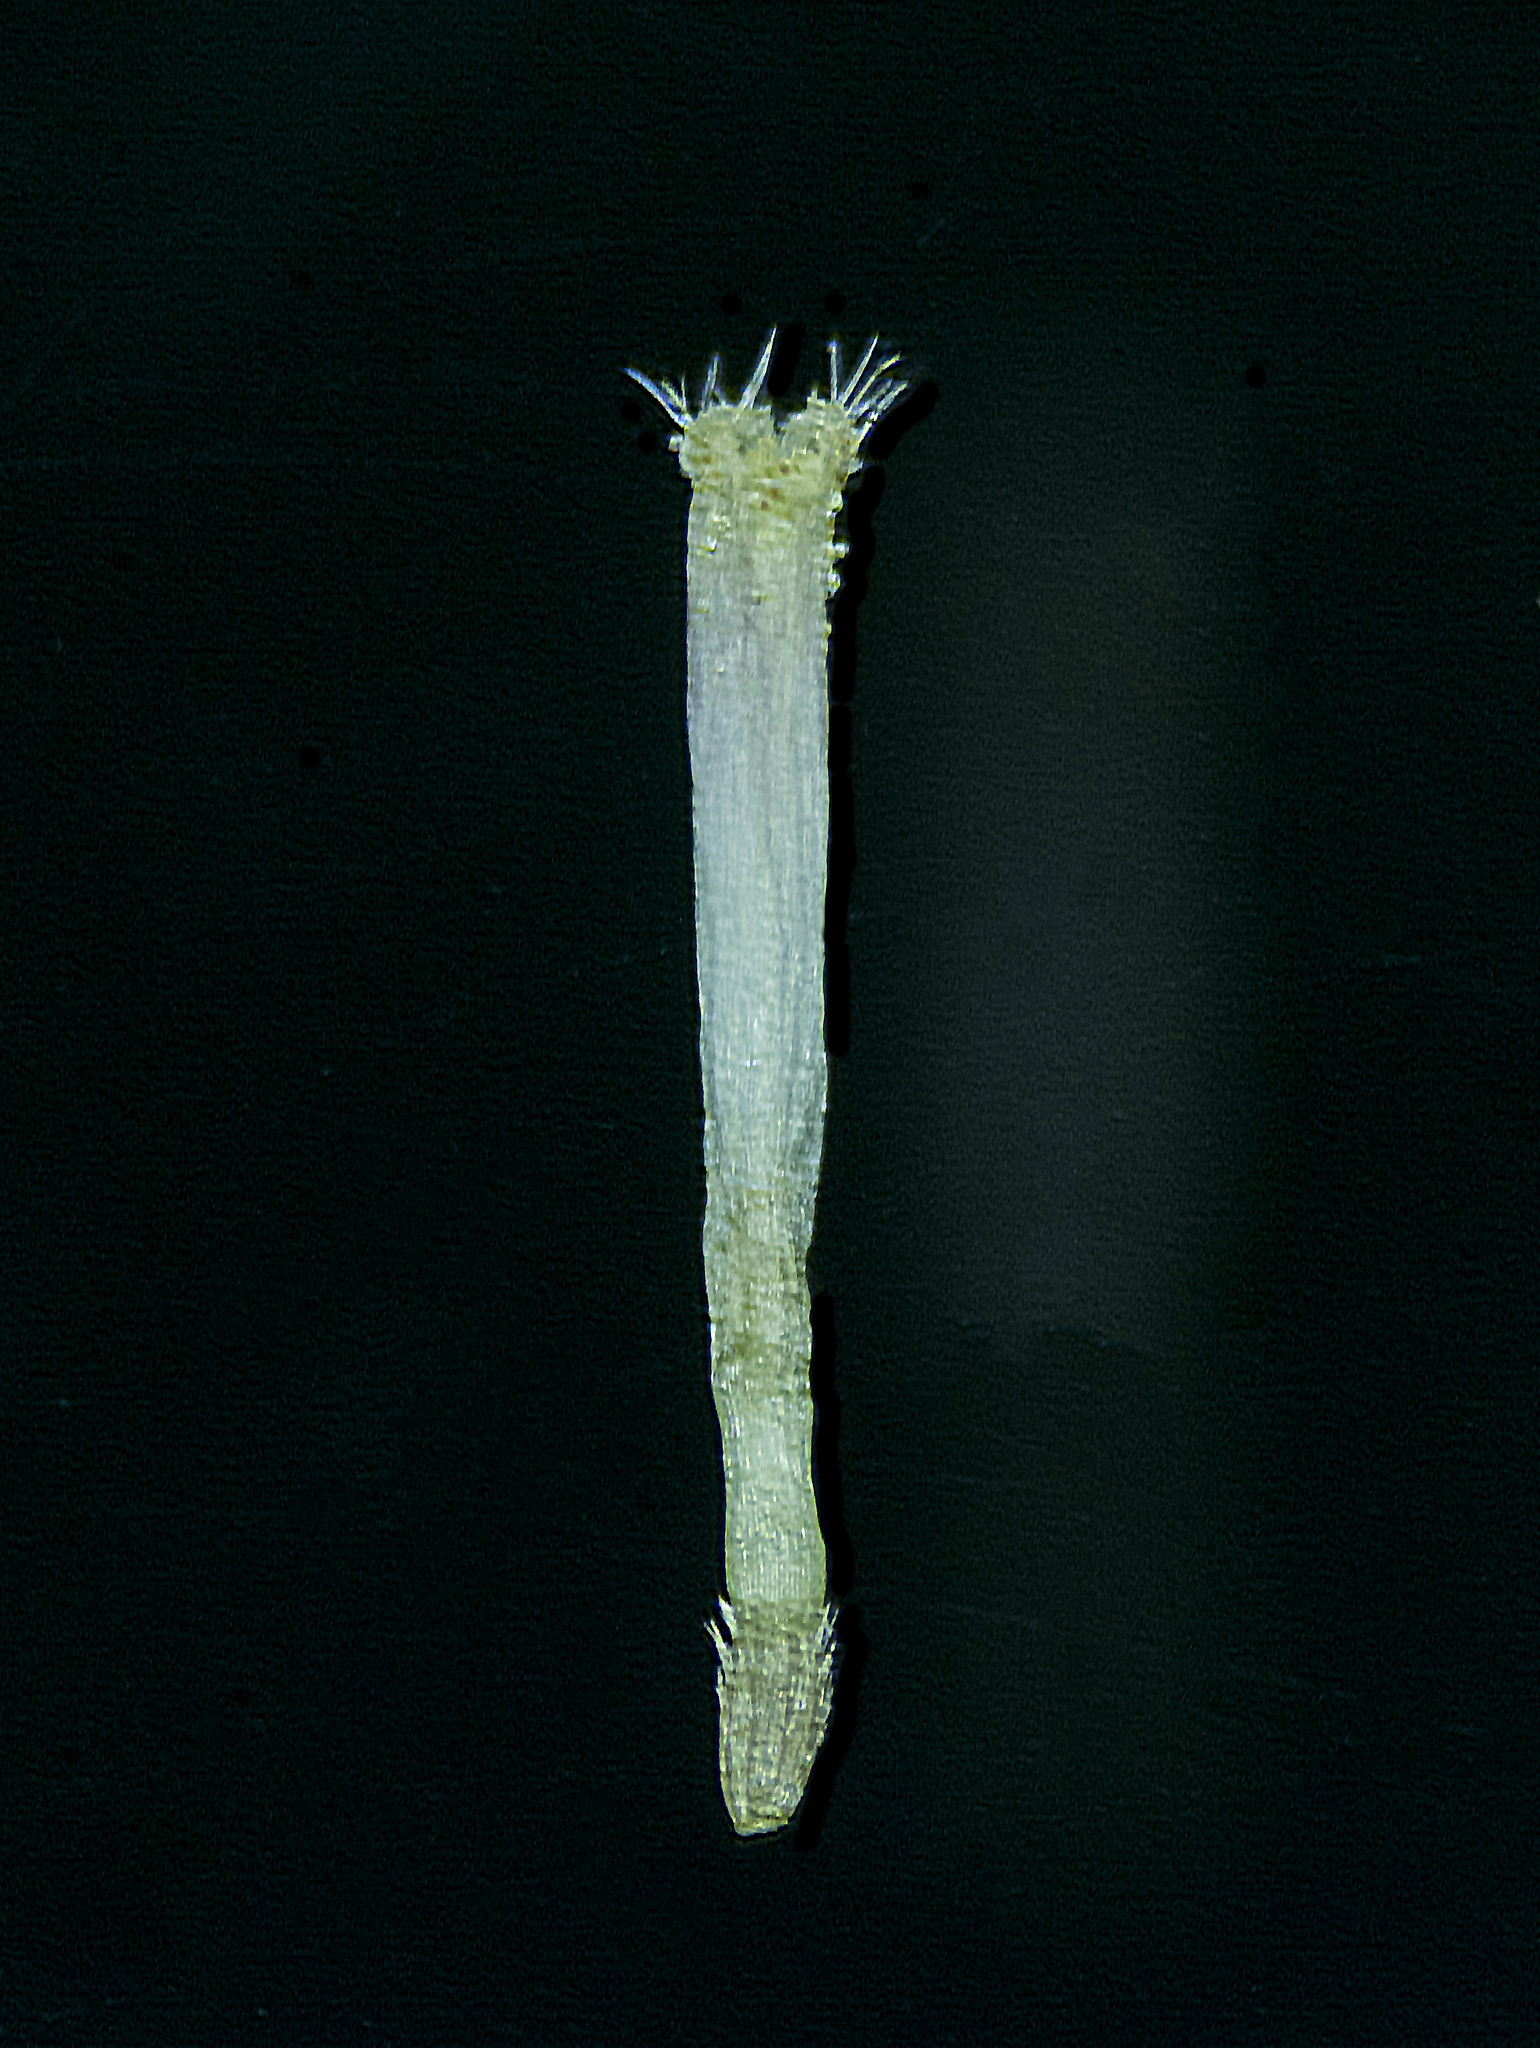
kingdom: Plantae
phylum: Tracheophyta
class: Magnoliopsida
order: Asterales
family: Asteraceae
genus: Blumea
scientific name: Blumea axillaris
